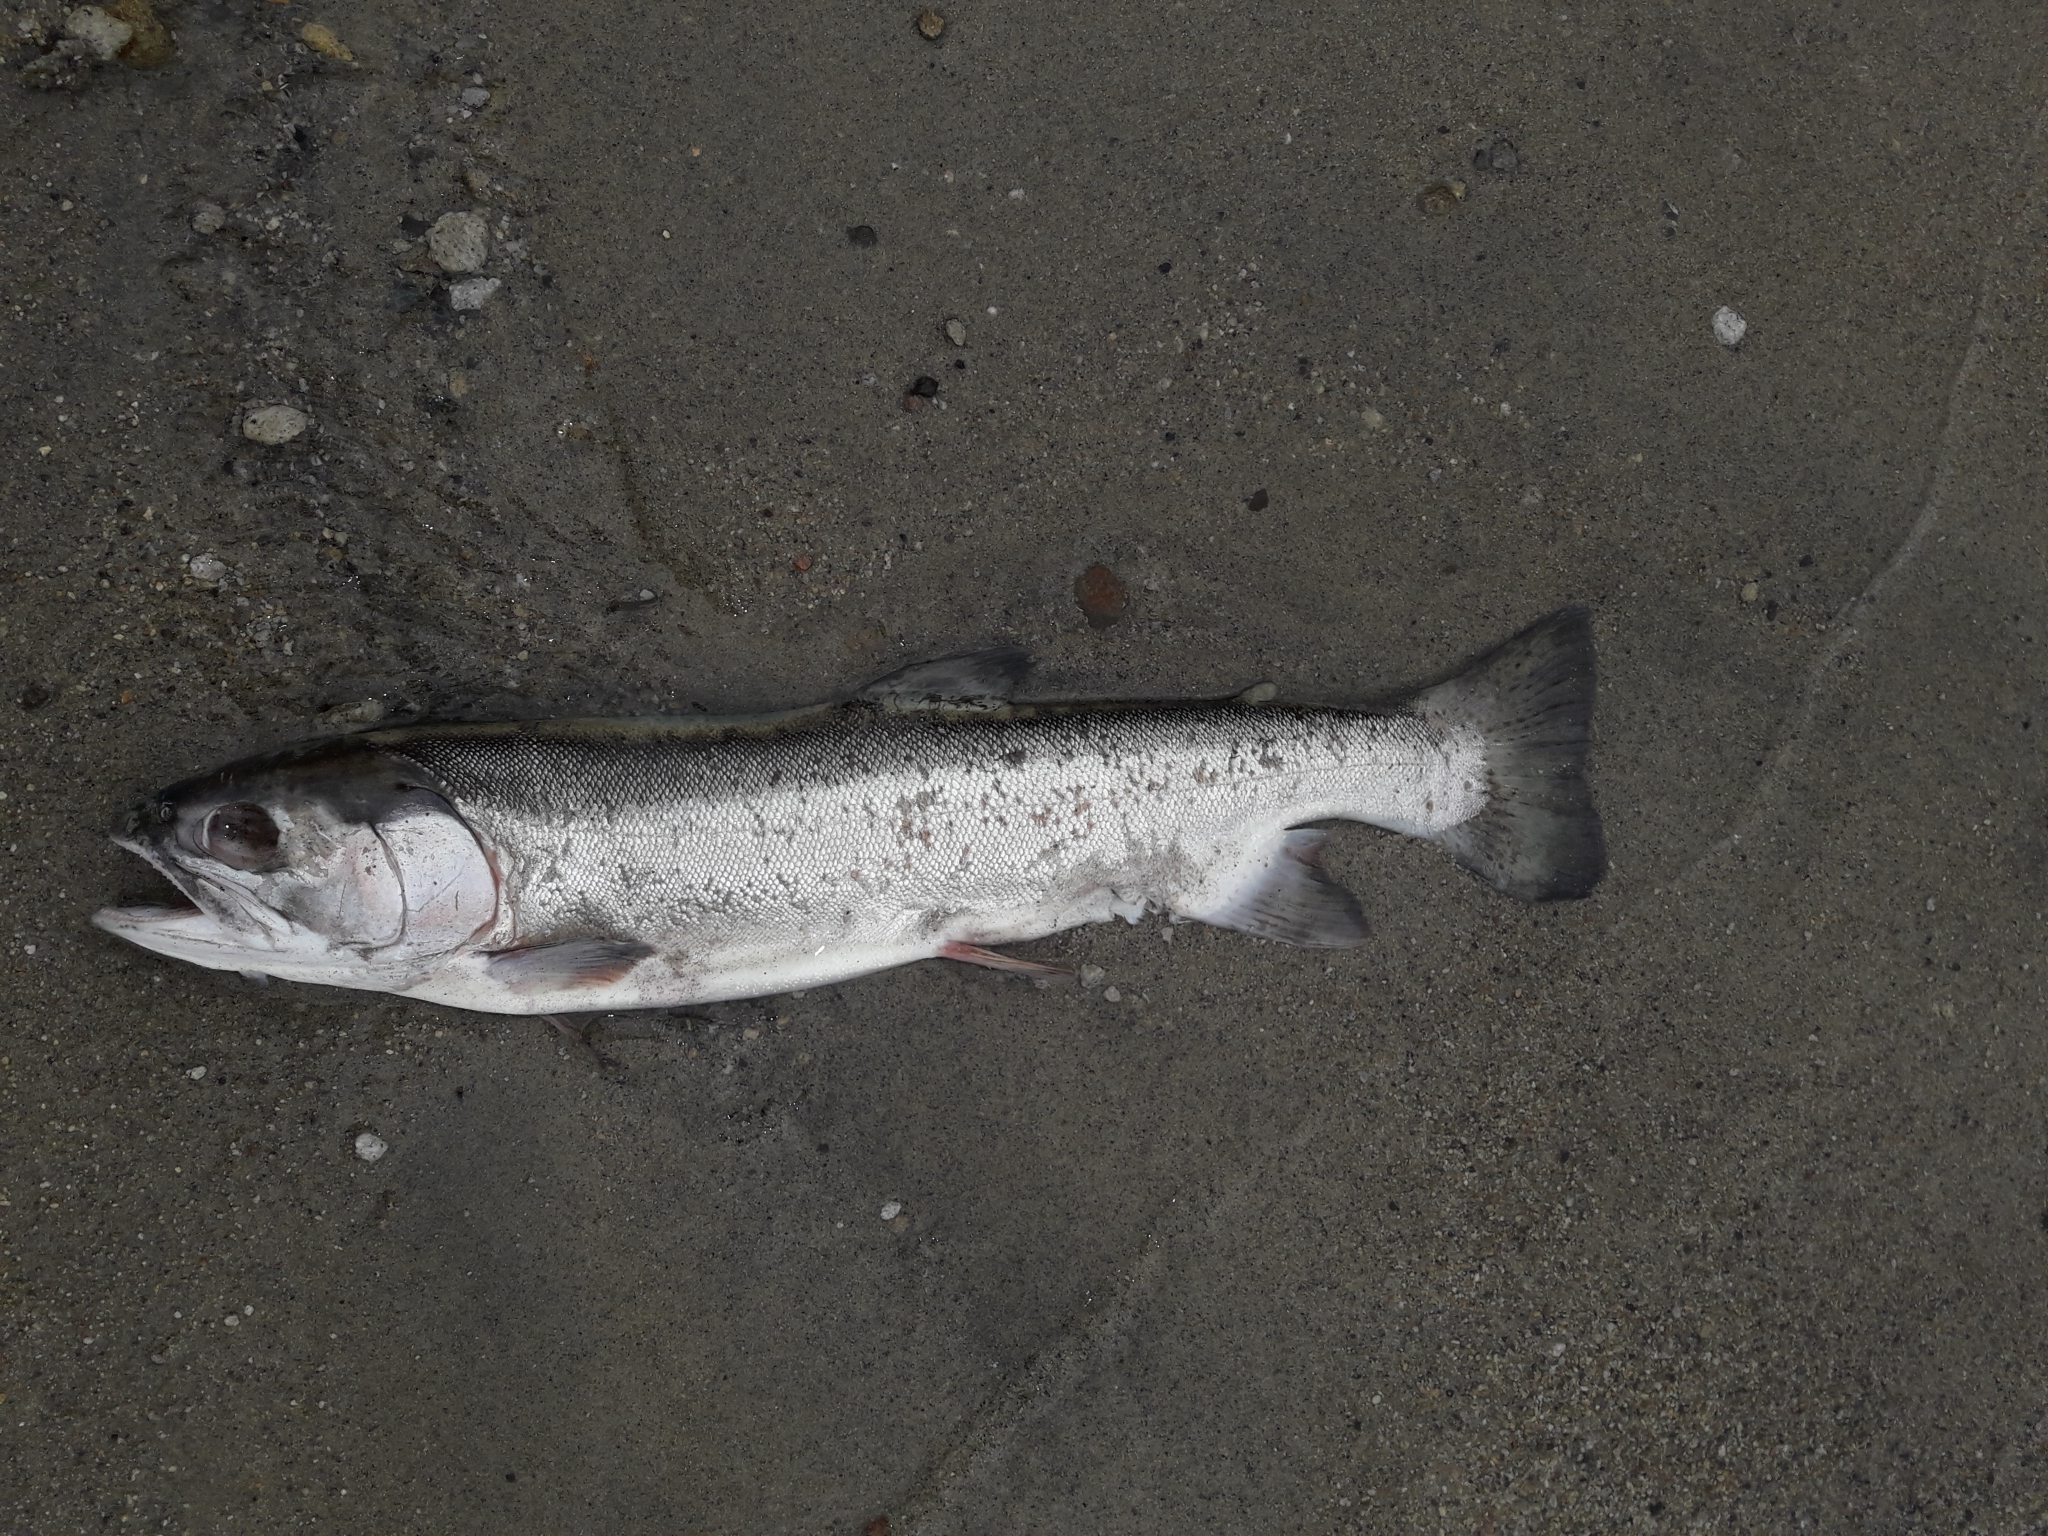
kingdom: Animalia
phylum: Chordata
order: Salmoniformes
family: Salmonidae
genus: Oncorhynchus
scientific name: Oncorhynchus mykiss
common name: Rainbow trout
